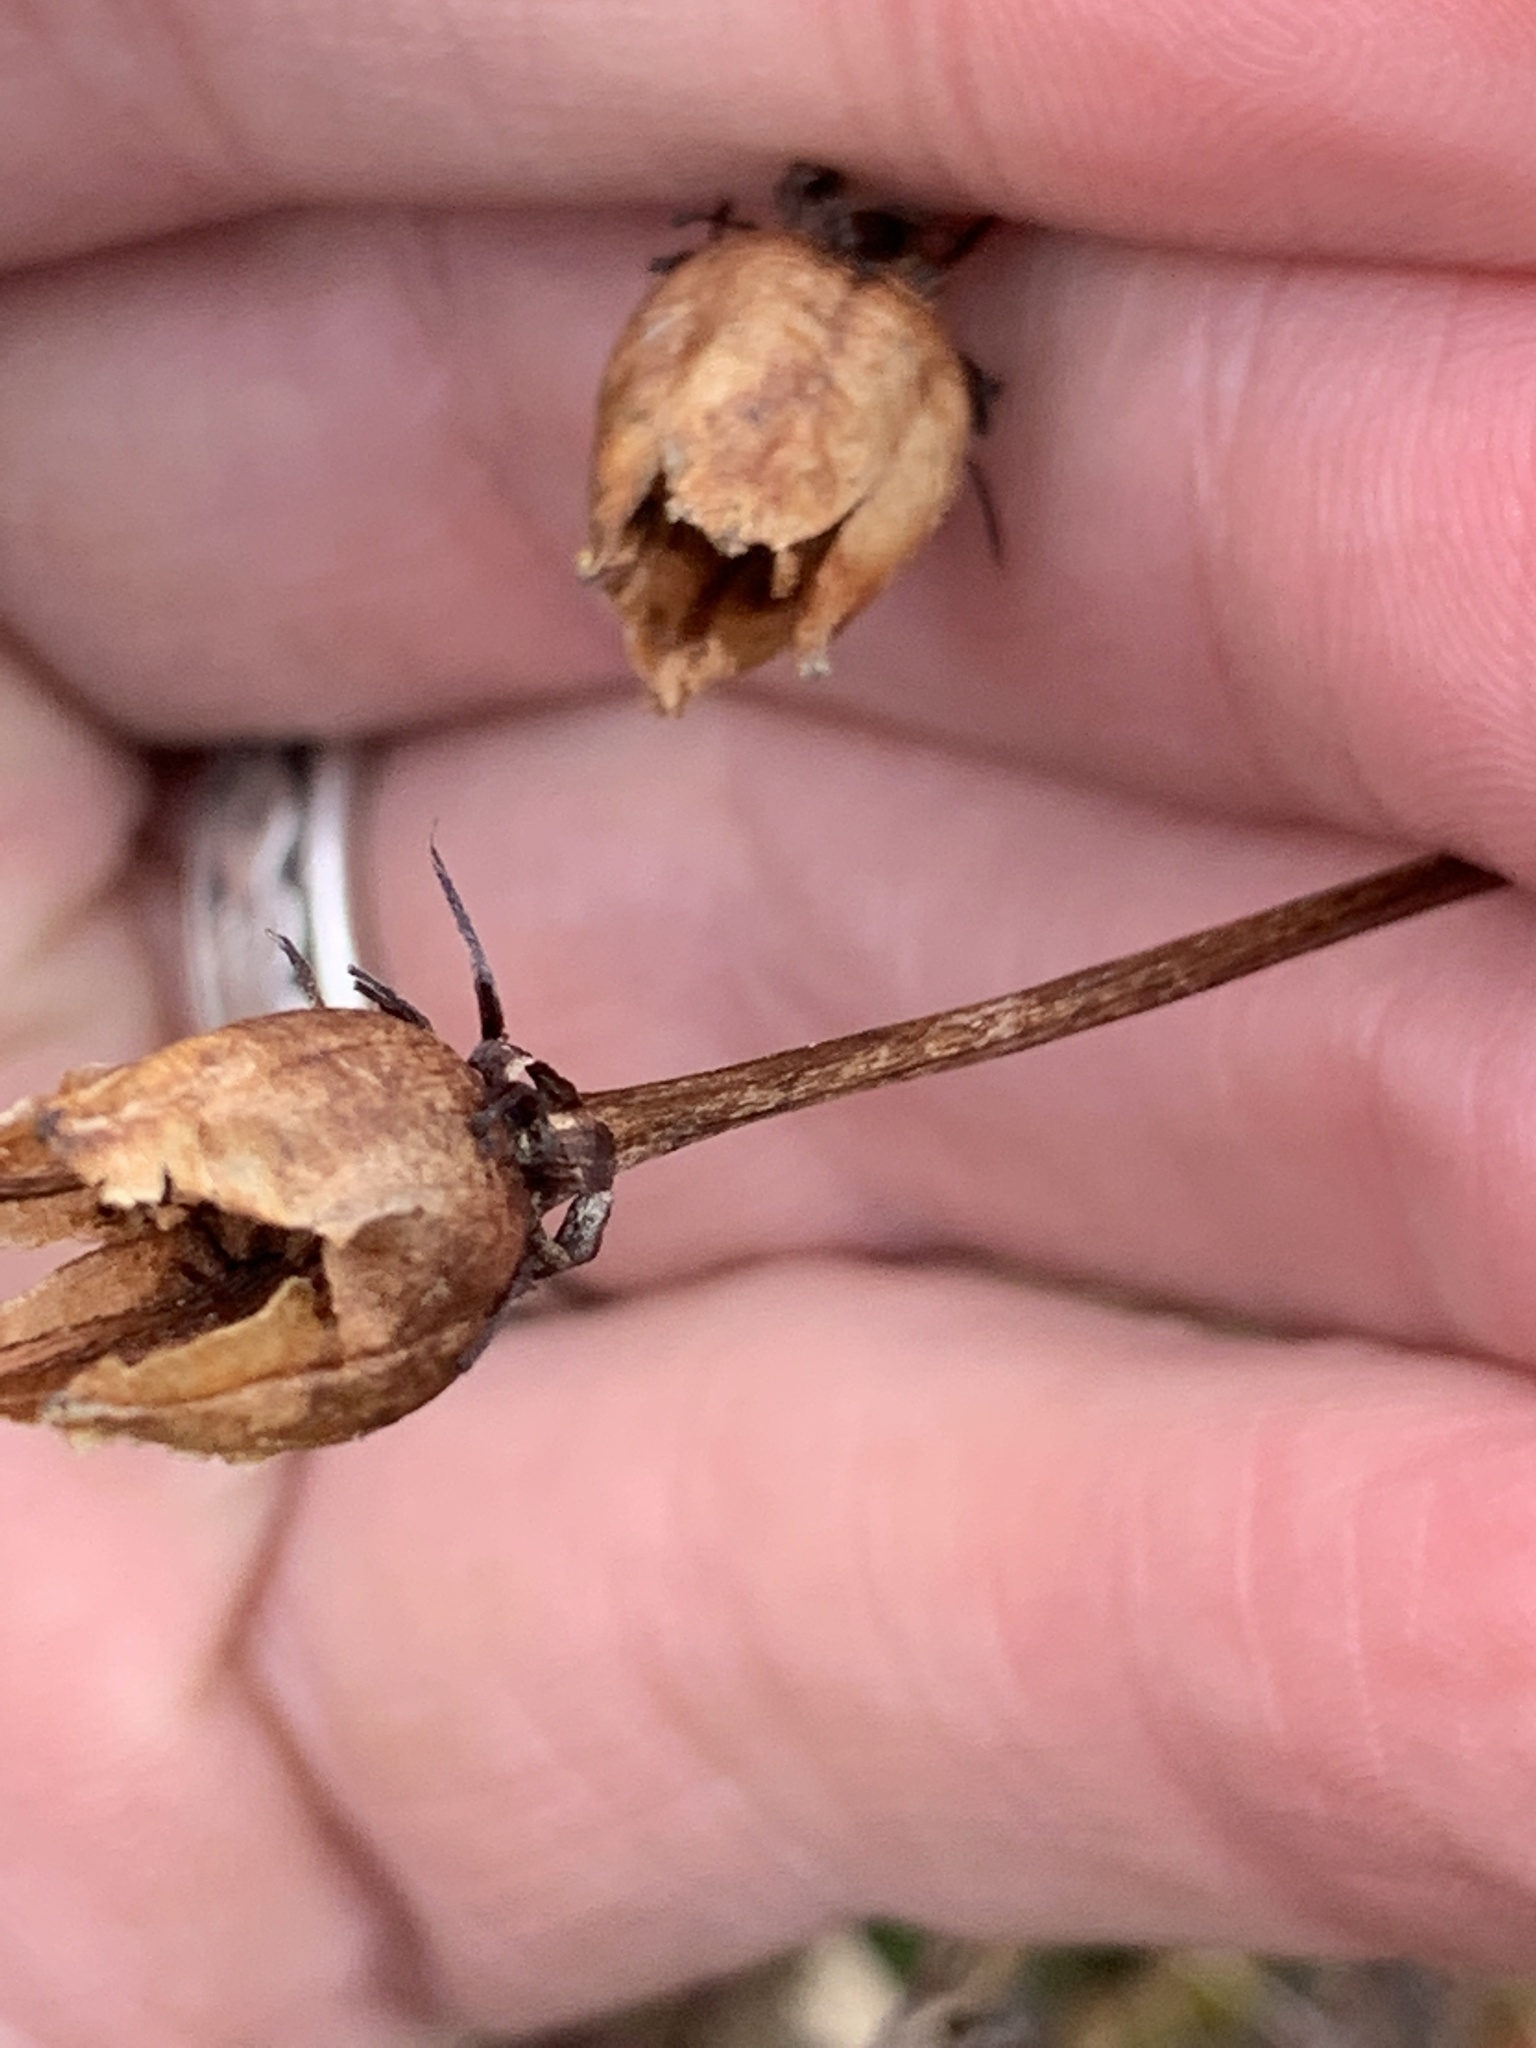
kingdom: Plantae
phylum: Tracheophyta
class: Magnoliopsida
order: Celastrales
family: Parnassiaceae
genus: Parnassia
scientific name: Parnassia glauca
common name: American grass-of-parnassus
